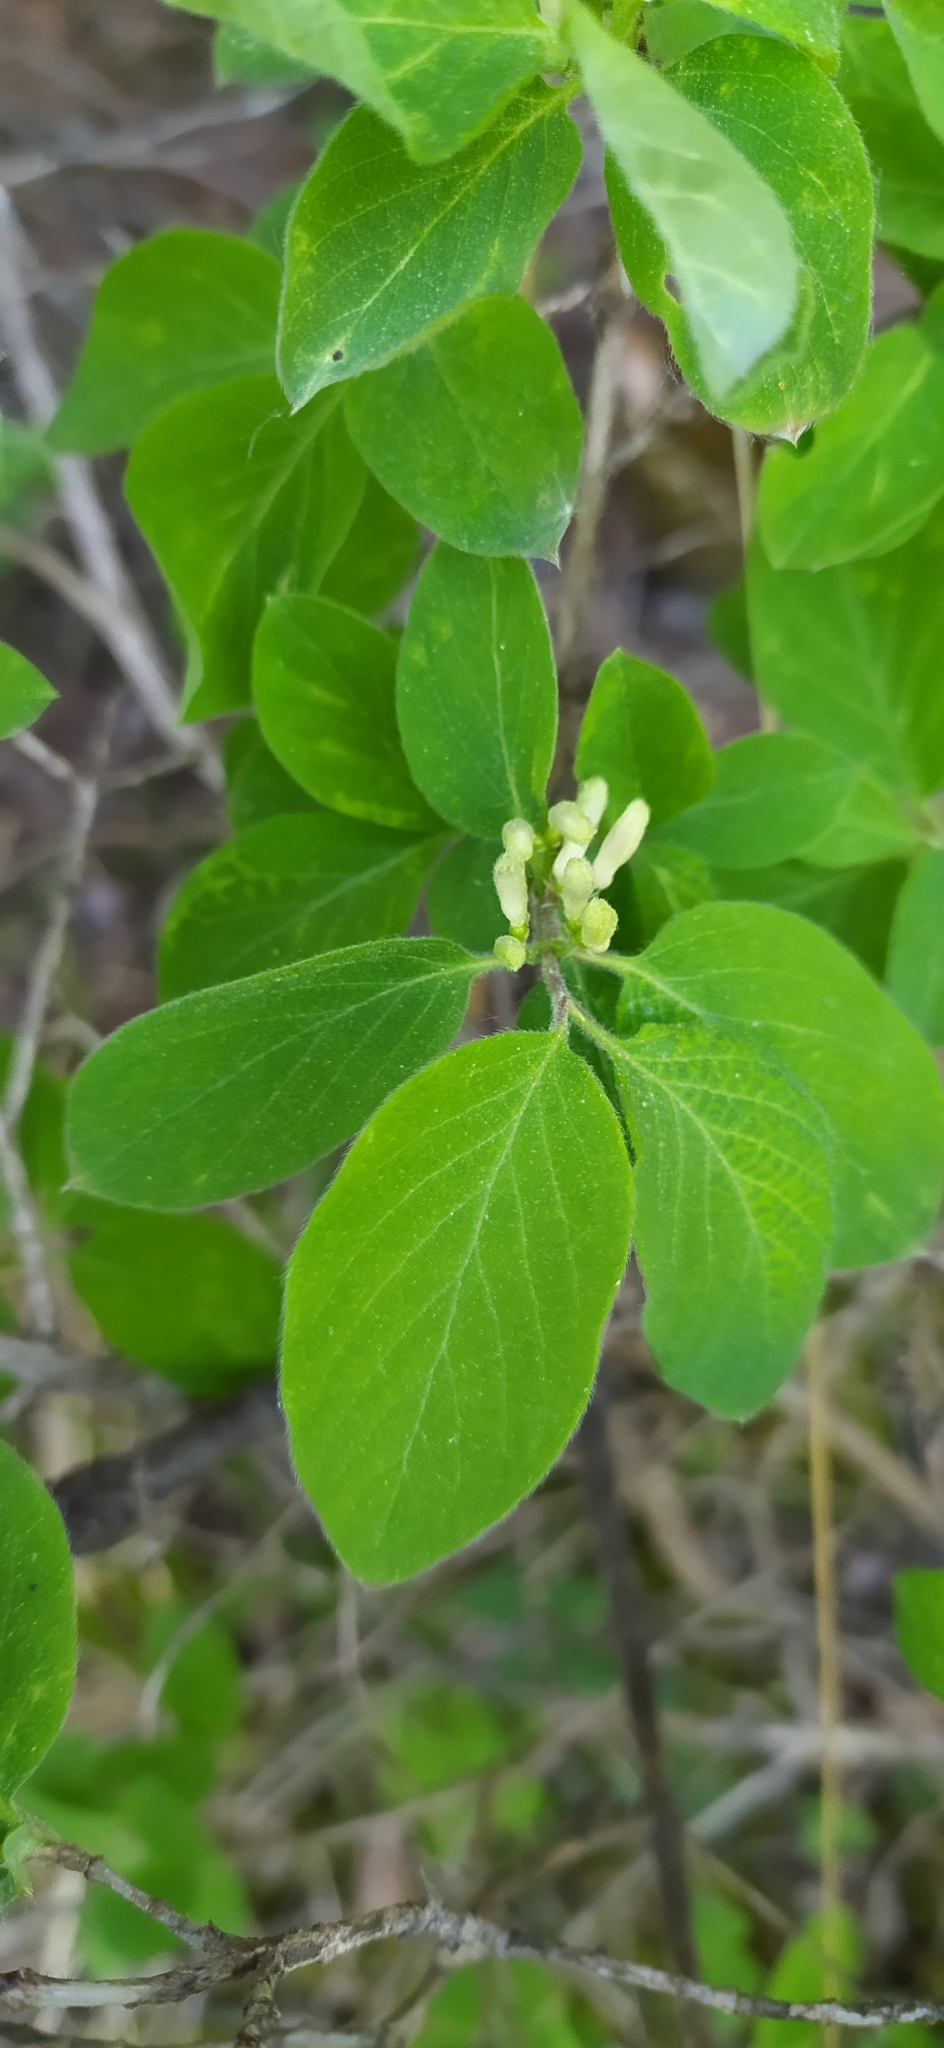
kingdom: Plantae
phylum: Tracheophyta
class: Magnoliopsida
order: Dipsacales
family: Caprifoliaceae
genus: Lonicera
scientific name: Lonicera xylosteum
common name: Fly honeysuckle
